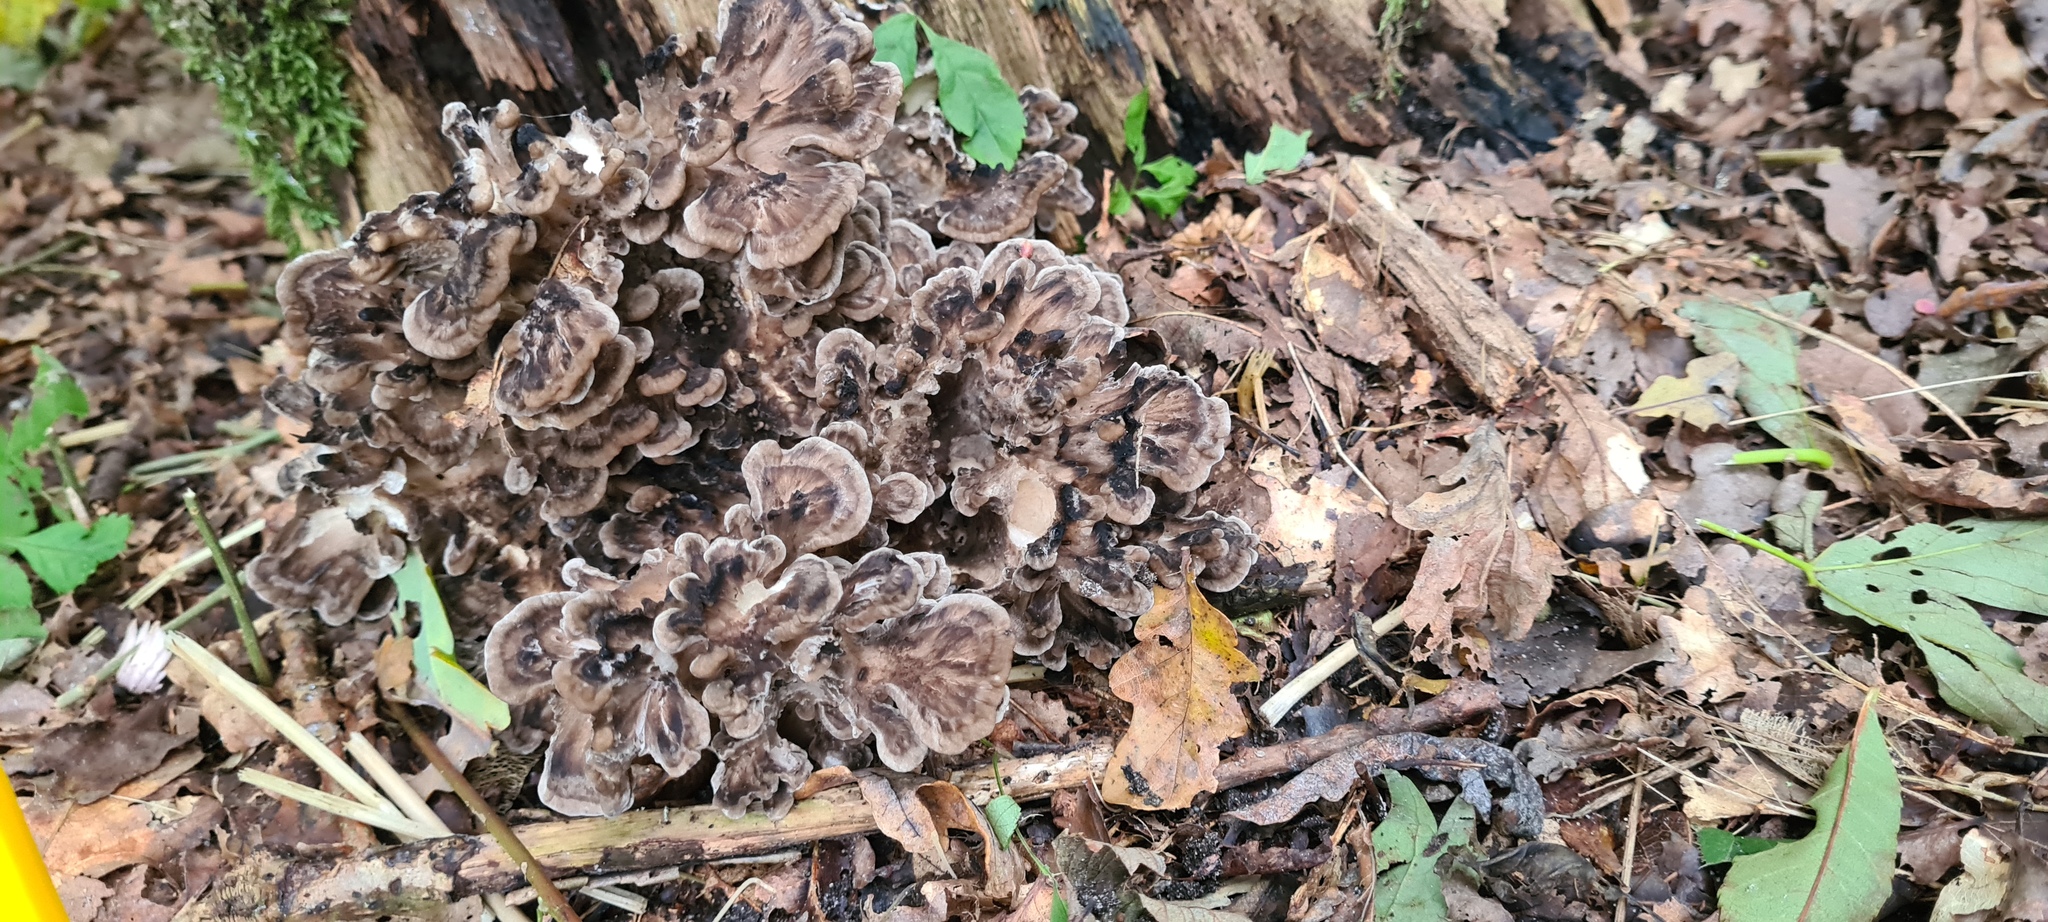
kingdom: Fungi
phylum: Basidiomycota
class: Agaricomycetes
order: Polyporales
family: Grifolaceae
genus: Grifola
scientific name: Grifola frondosa
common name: Hen of the woods
